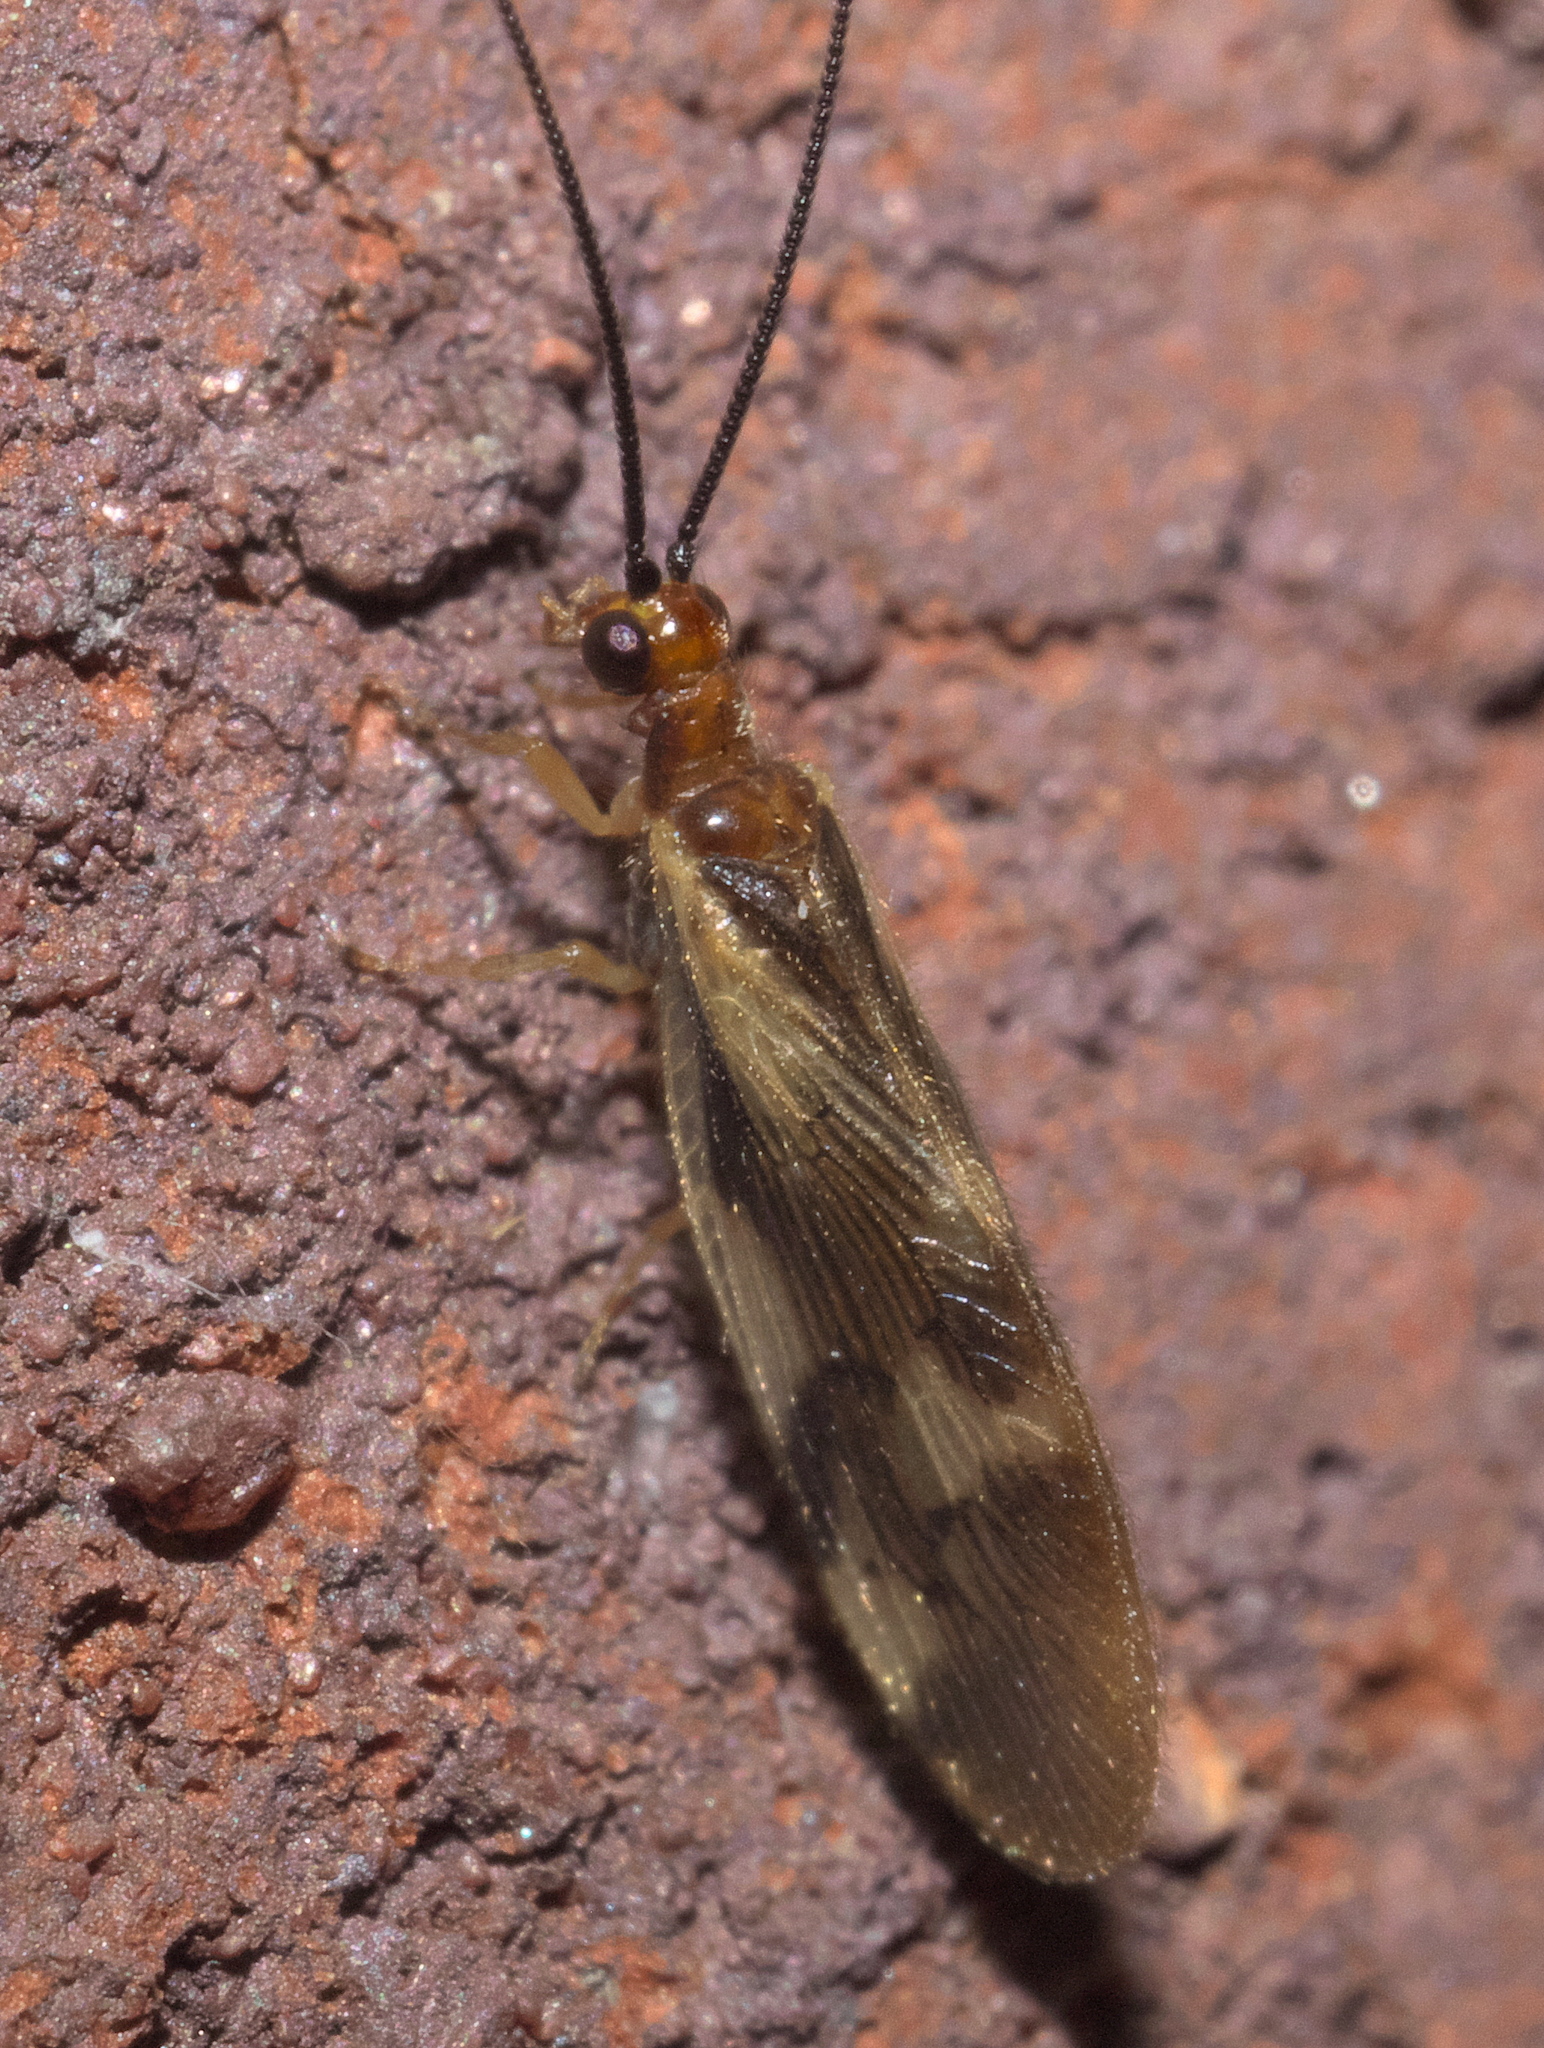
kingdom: Animalia
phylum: Arthropoda
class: Insecta
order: Neuroptera
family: Sisyridae
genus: Climacia
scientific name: Climacia areolaris
